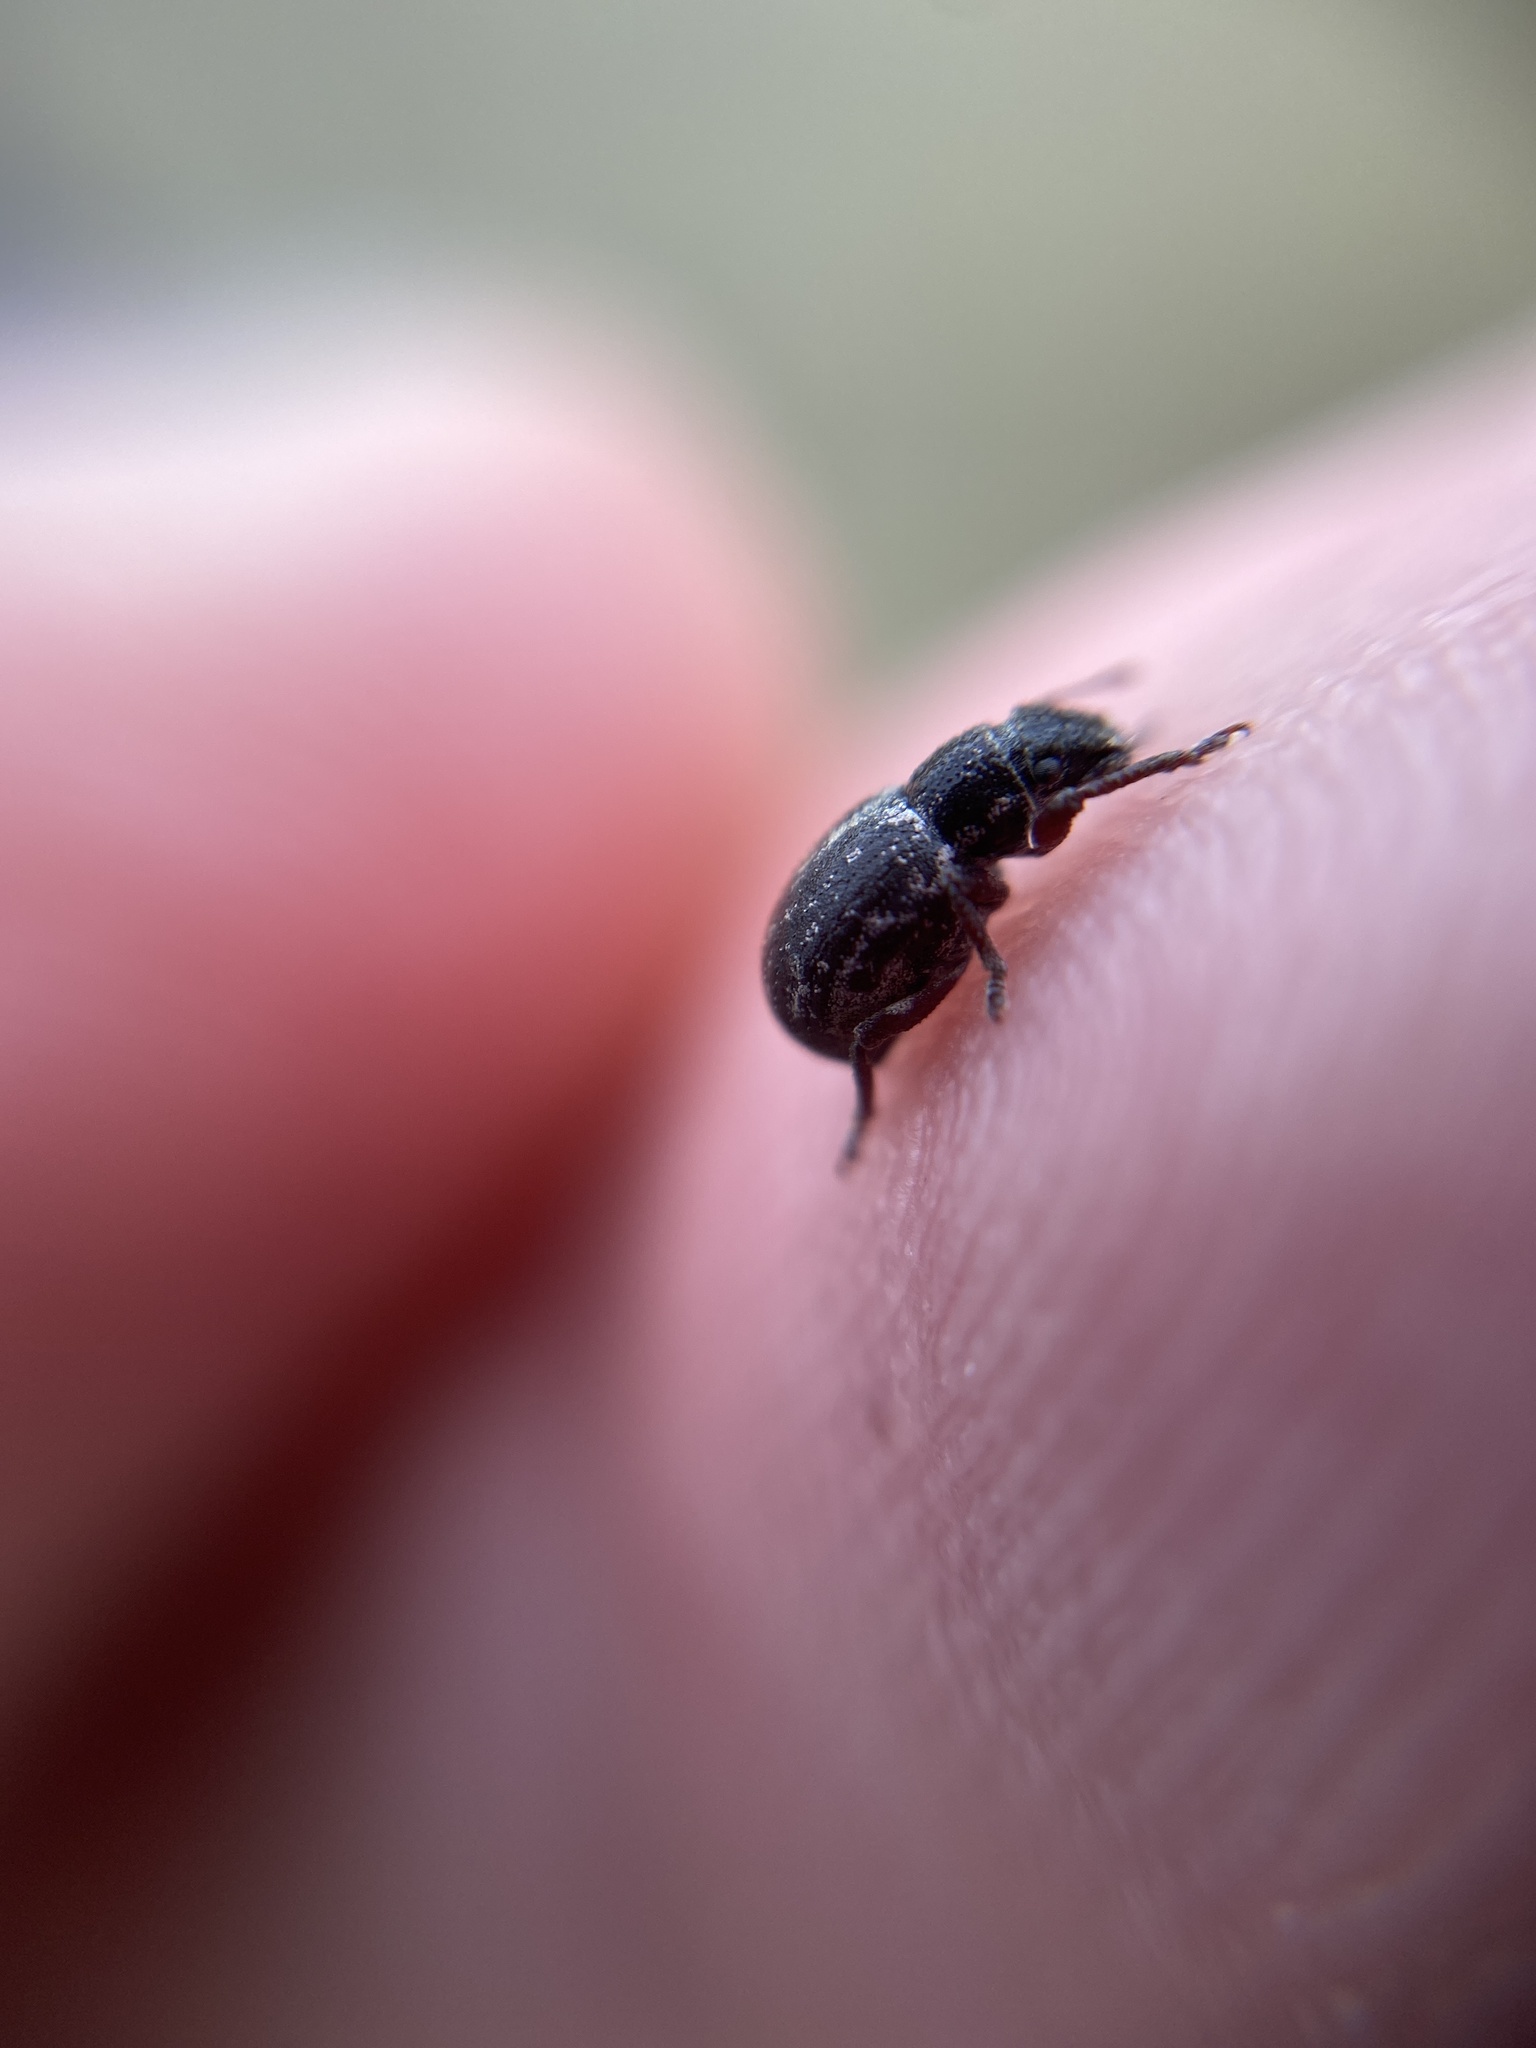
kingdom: Animalia
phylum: Arthropoda
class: Insecta
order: Coleoptera
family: Curculionidae
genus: Strophosoma
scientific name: Strophosoma capitatum
